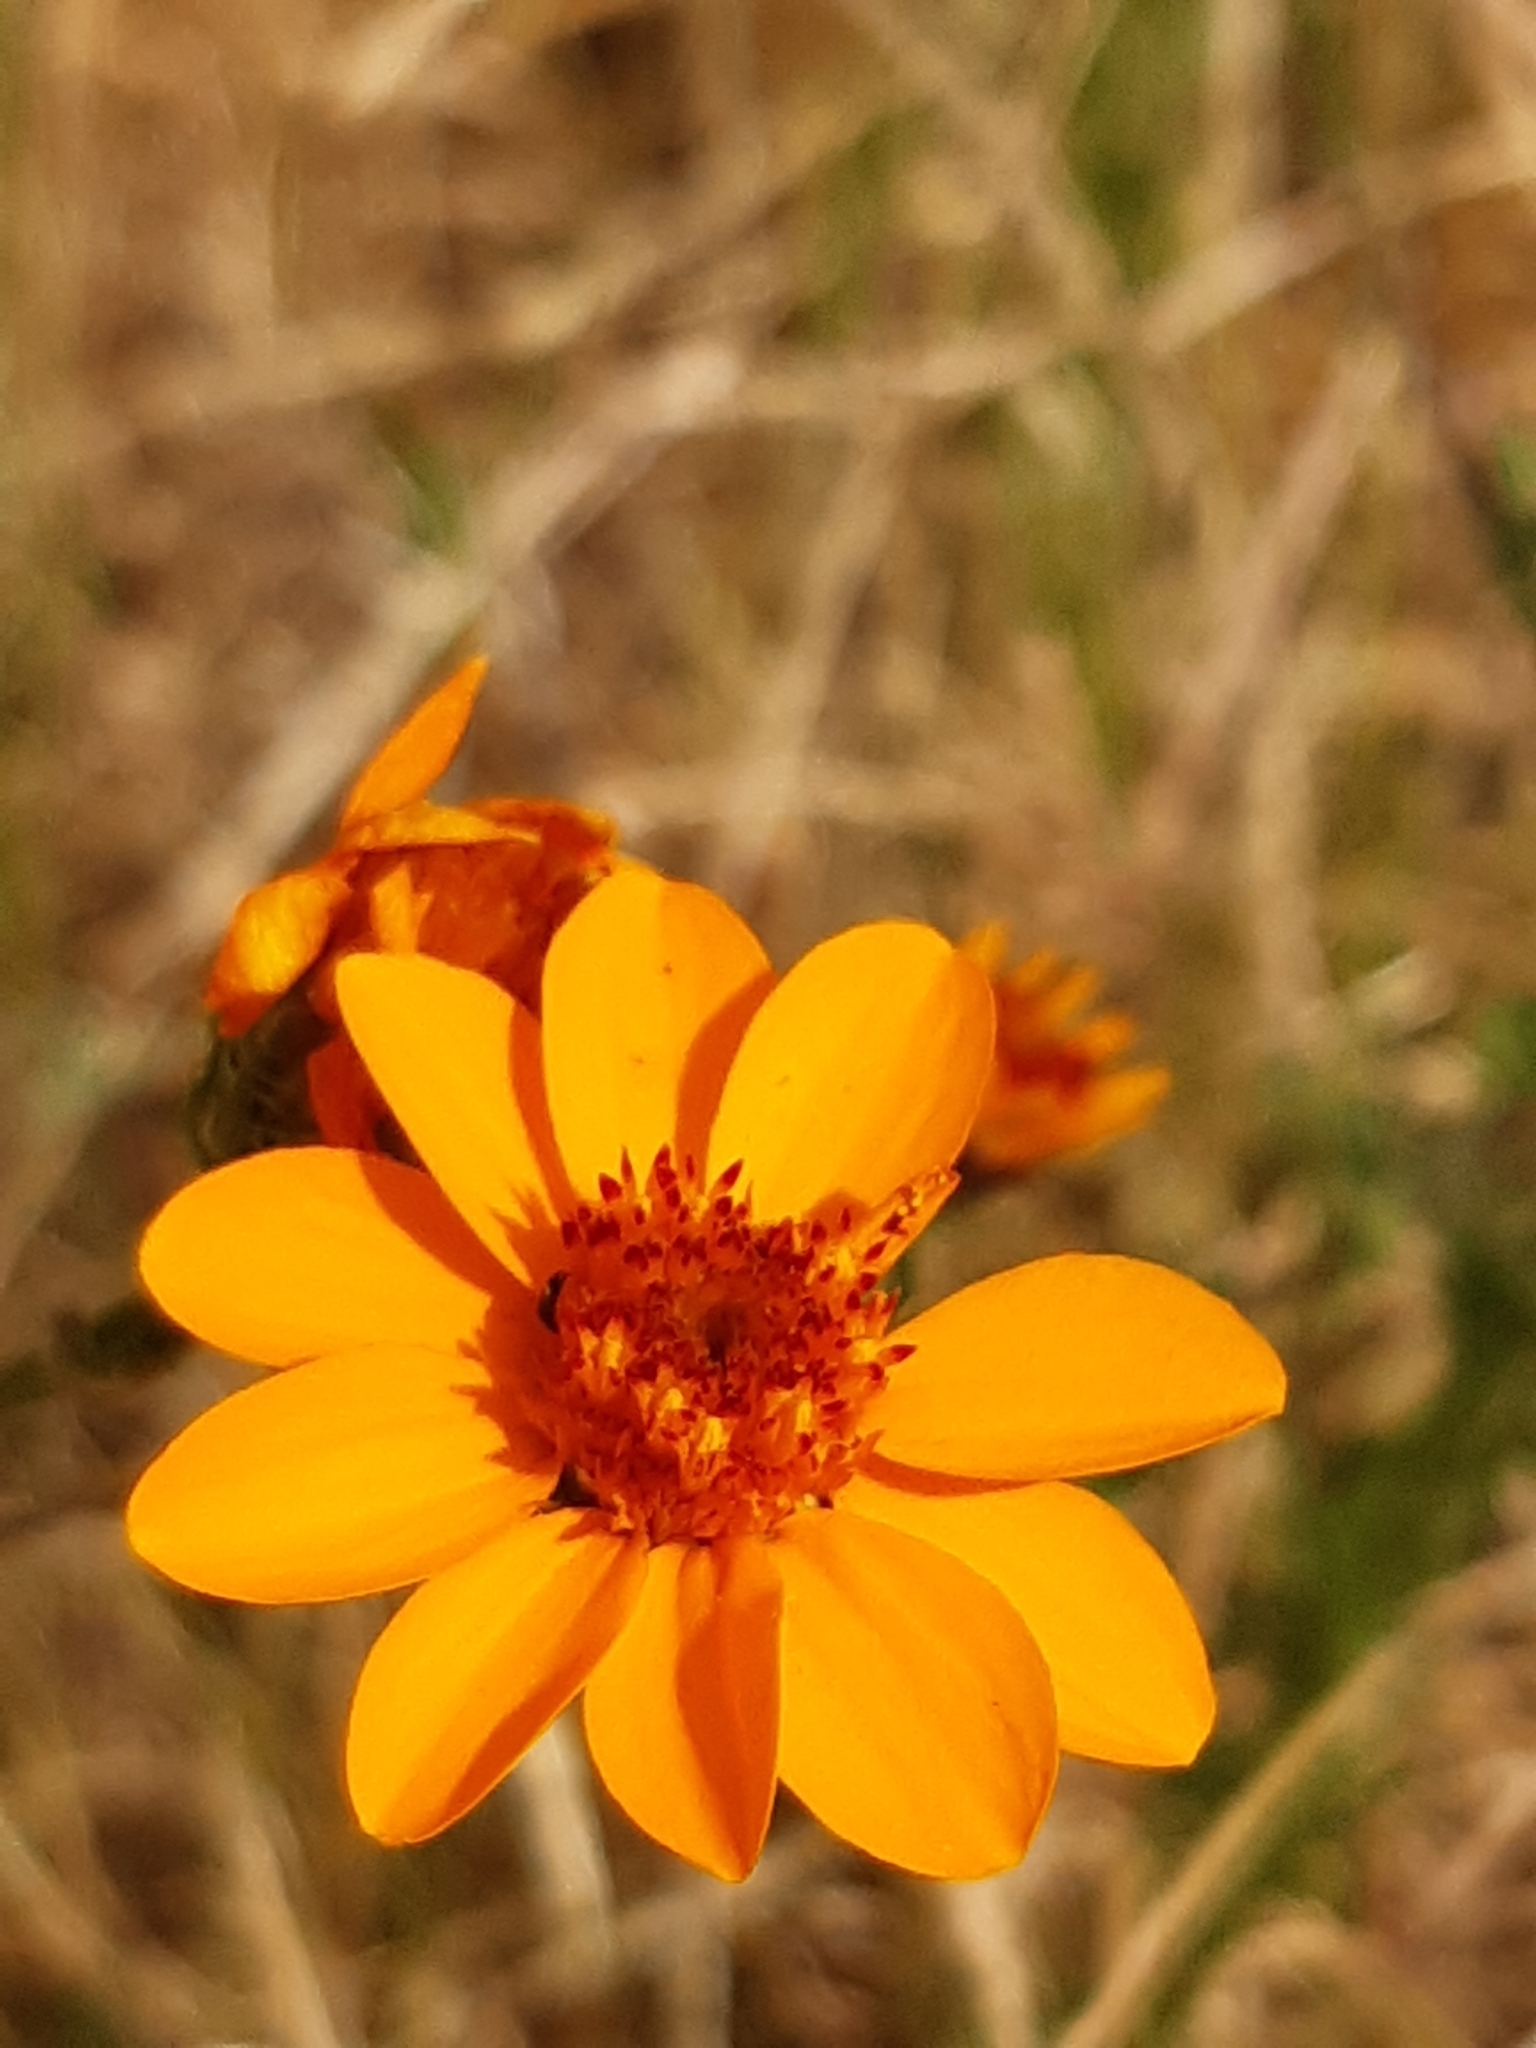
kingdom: Plantae
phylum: Tracheophyta
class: Magnoliopsida
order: Asterales
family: Asteraceae
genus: Adenophyllum
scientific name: Adenophyllum cancellatum
